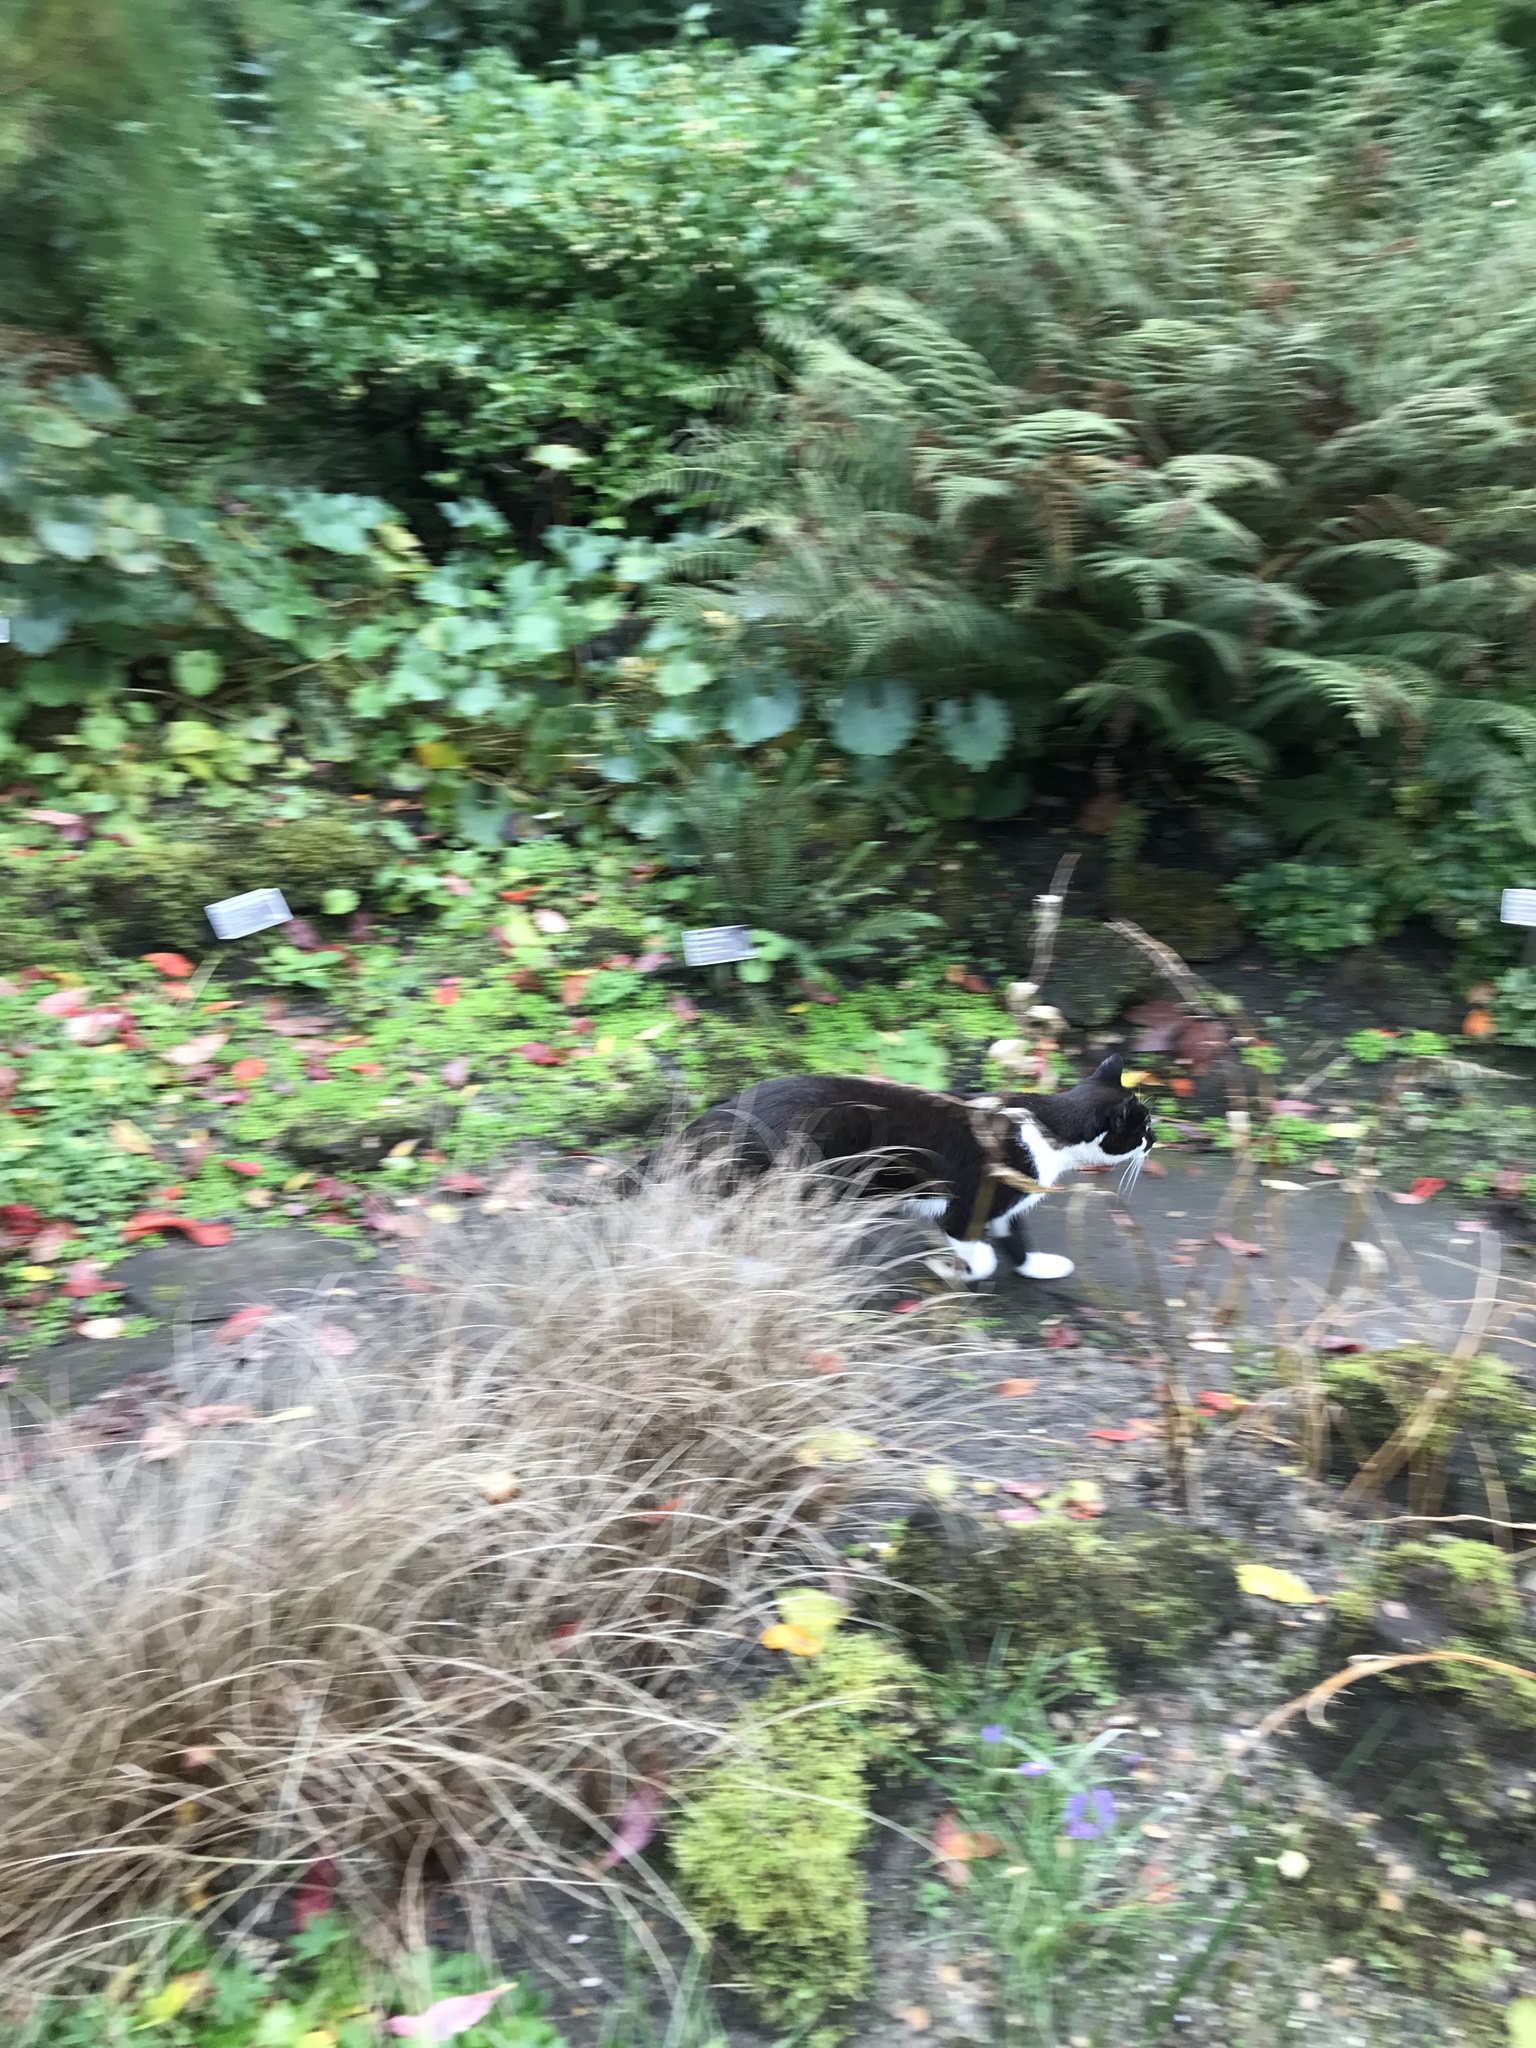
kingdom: Animalia
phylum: Chordata
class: Mammalia
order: Carnivora
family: Felidae
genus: Felis
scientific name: Felis catus
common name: Domestic cat
